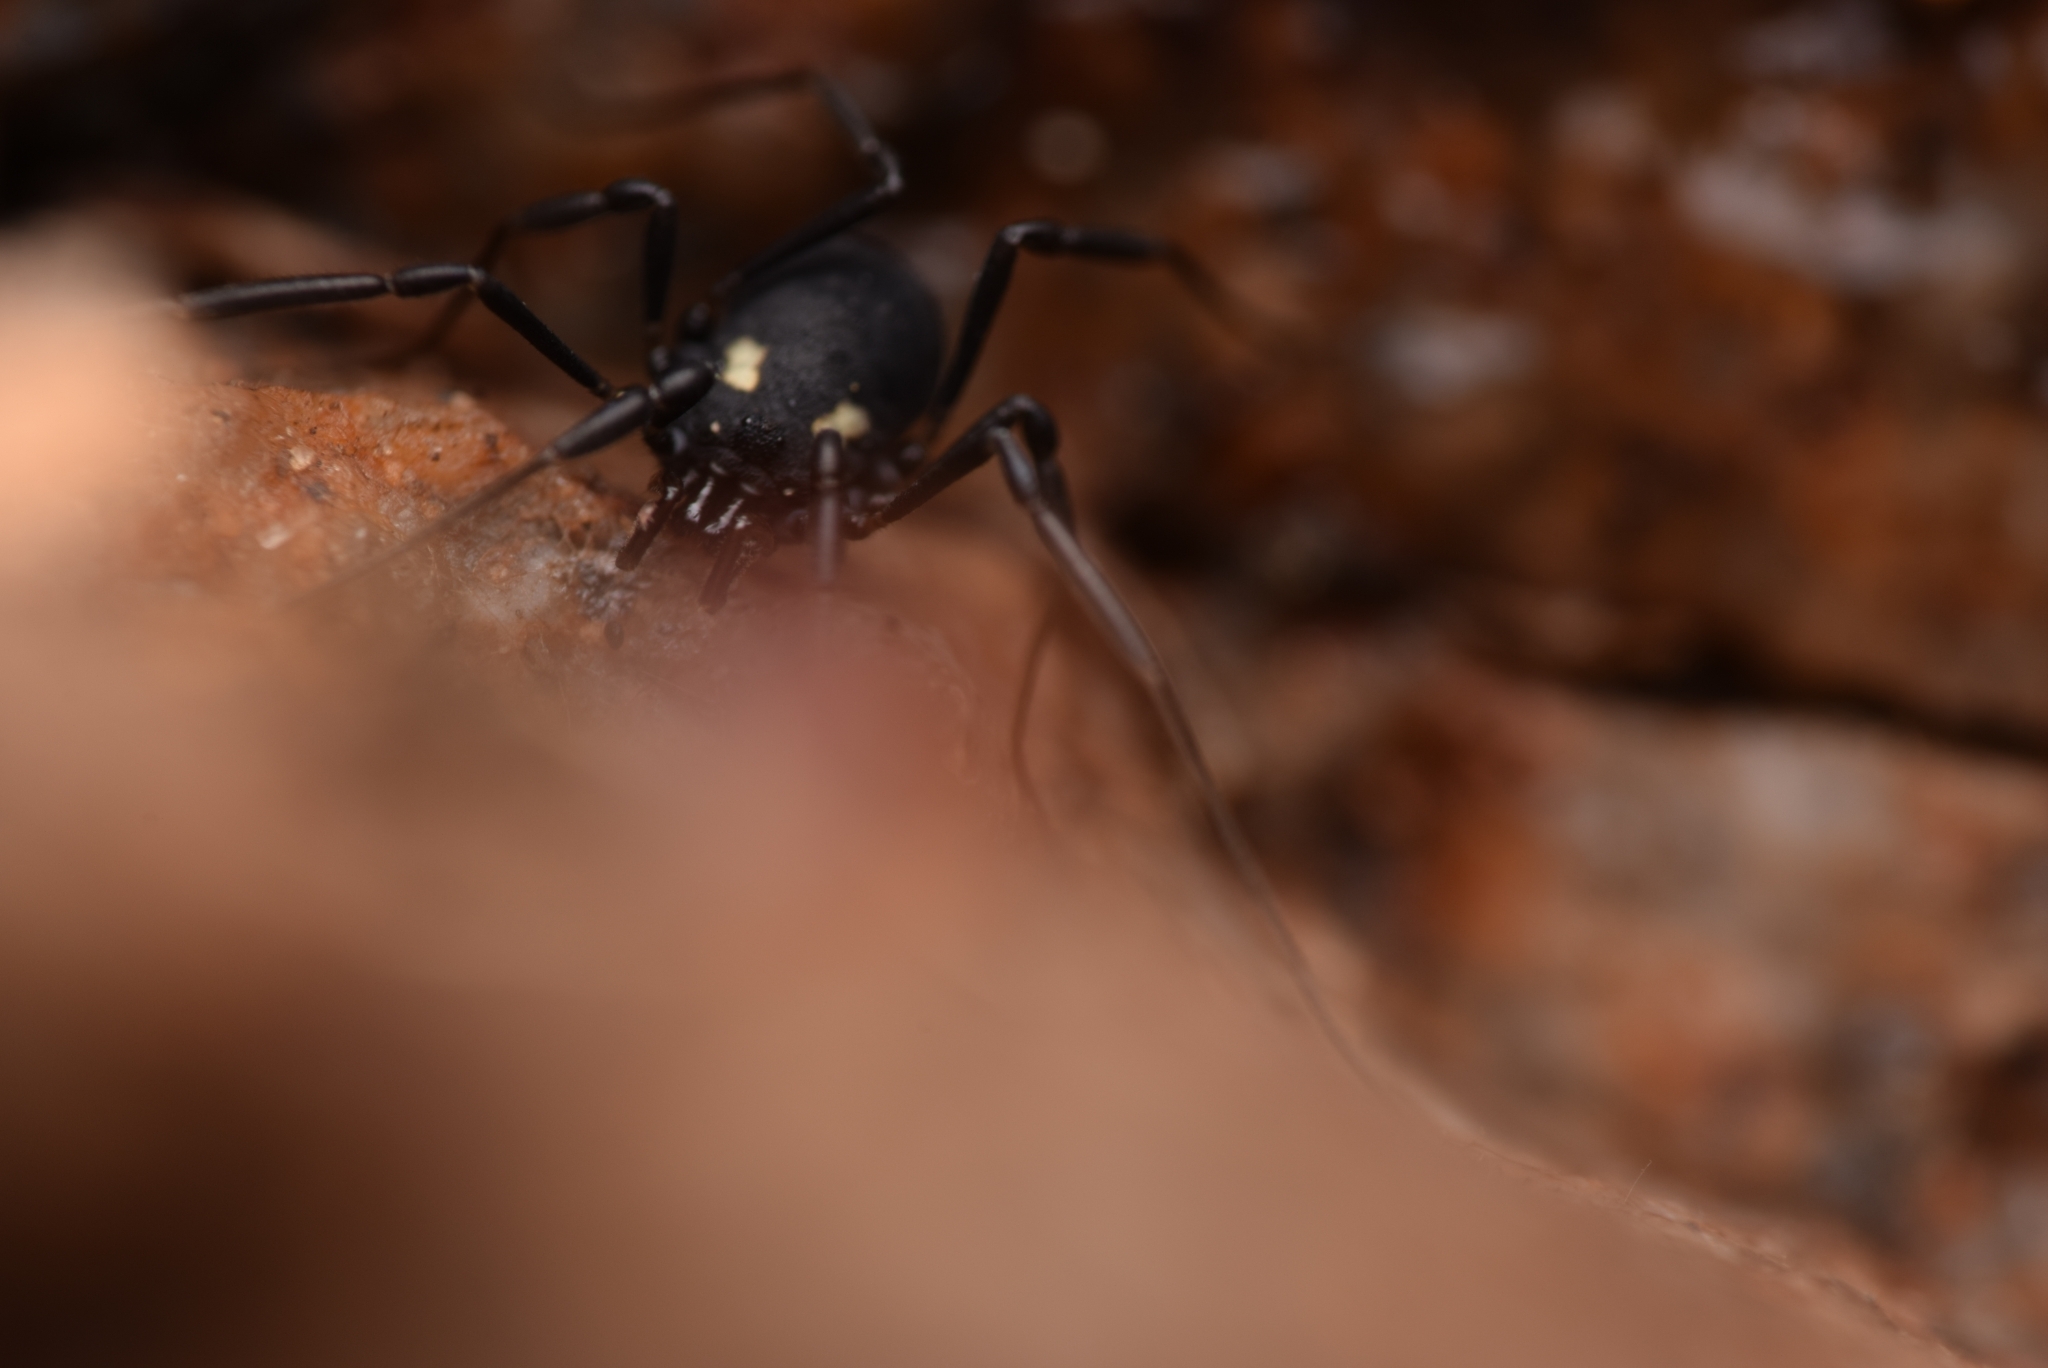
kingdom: Animalia
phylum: Arthropoda
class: Arachnida
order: Opiliones
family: Nemastomatidae
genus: Nemastoma
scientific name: Nemastoma bimaculatum
